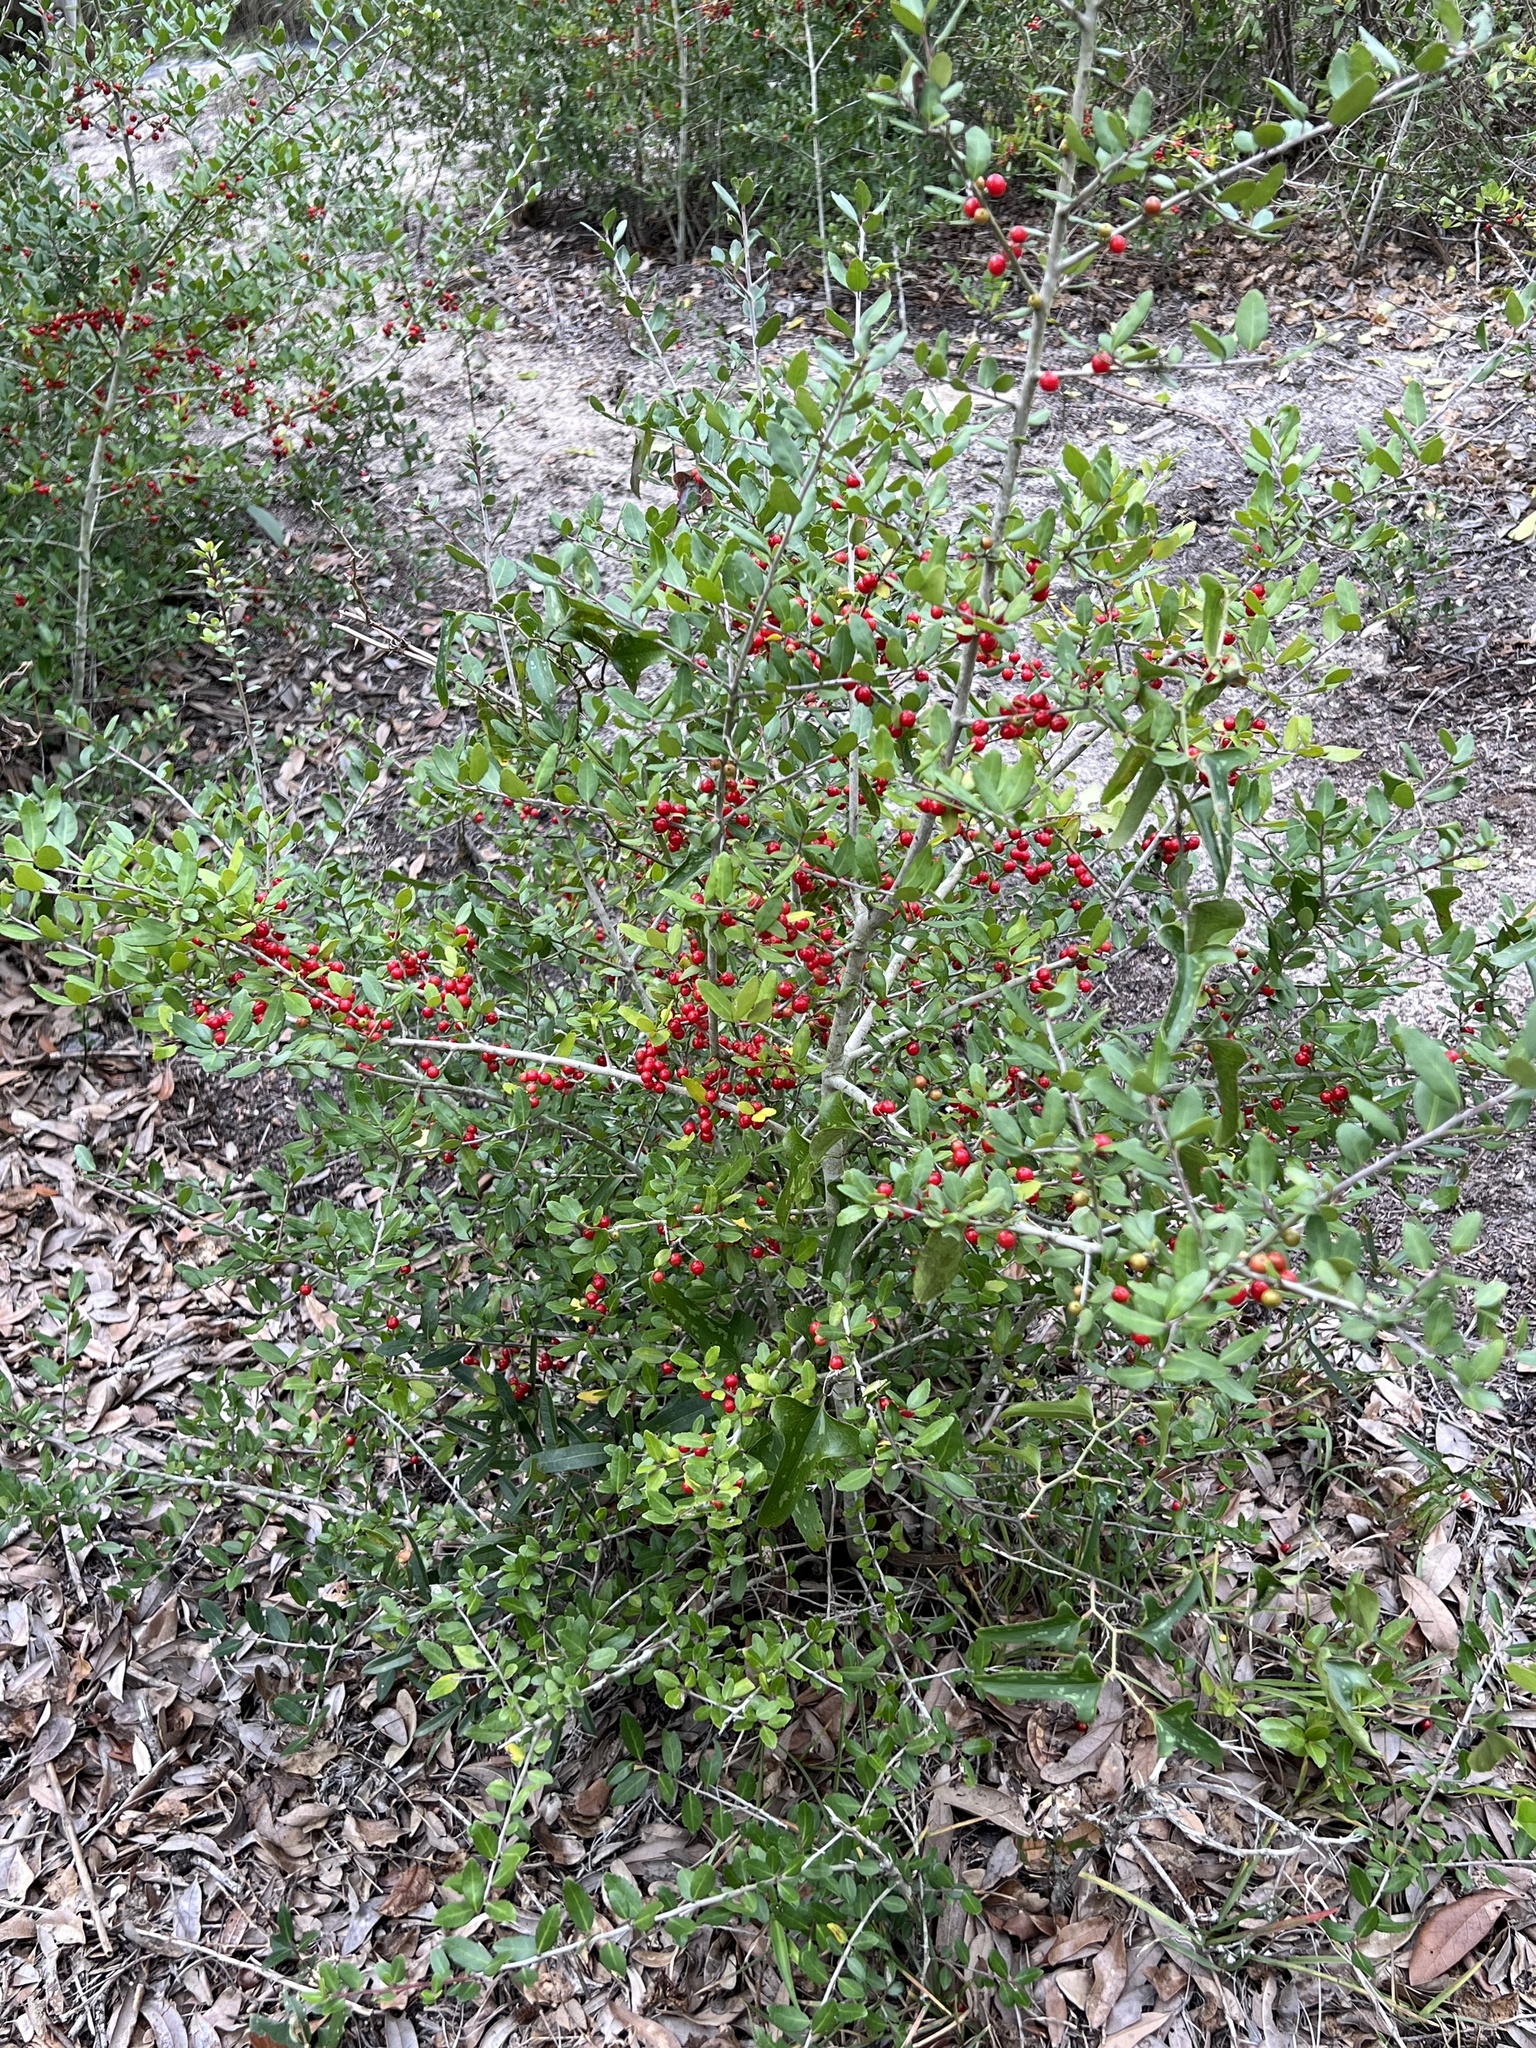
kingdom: Plantae
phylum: Tracheophyta
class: Magnoliopsida
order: Aquifoliales
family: Aquifoliaceae
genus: Ilex
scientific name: Ilex vomitoria
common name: Yaupon holly
